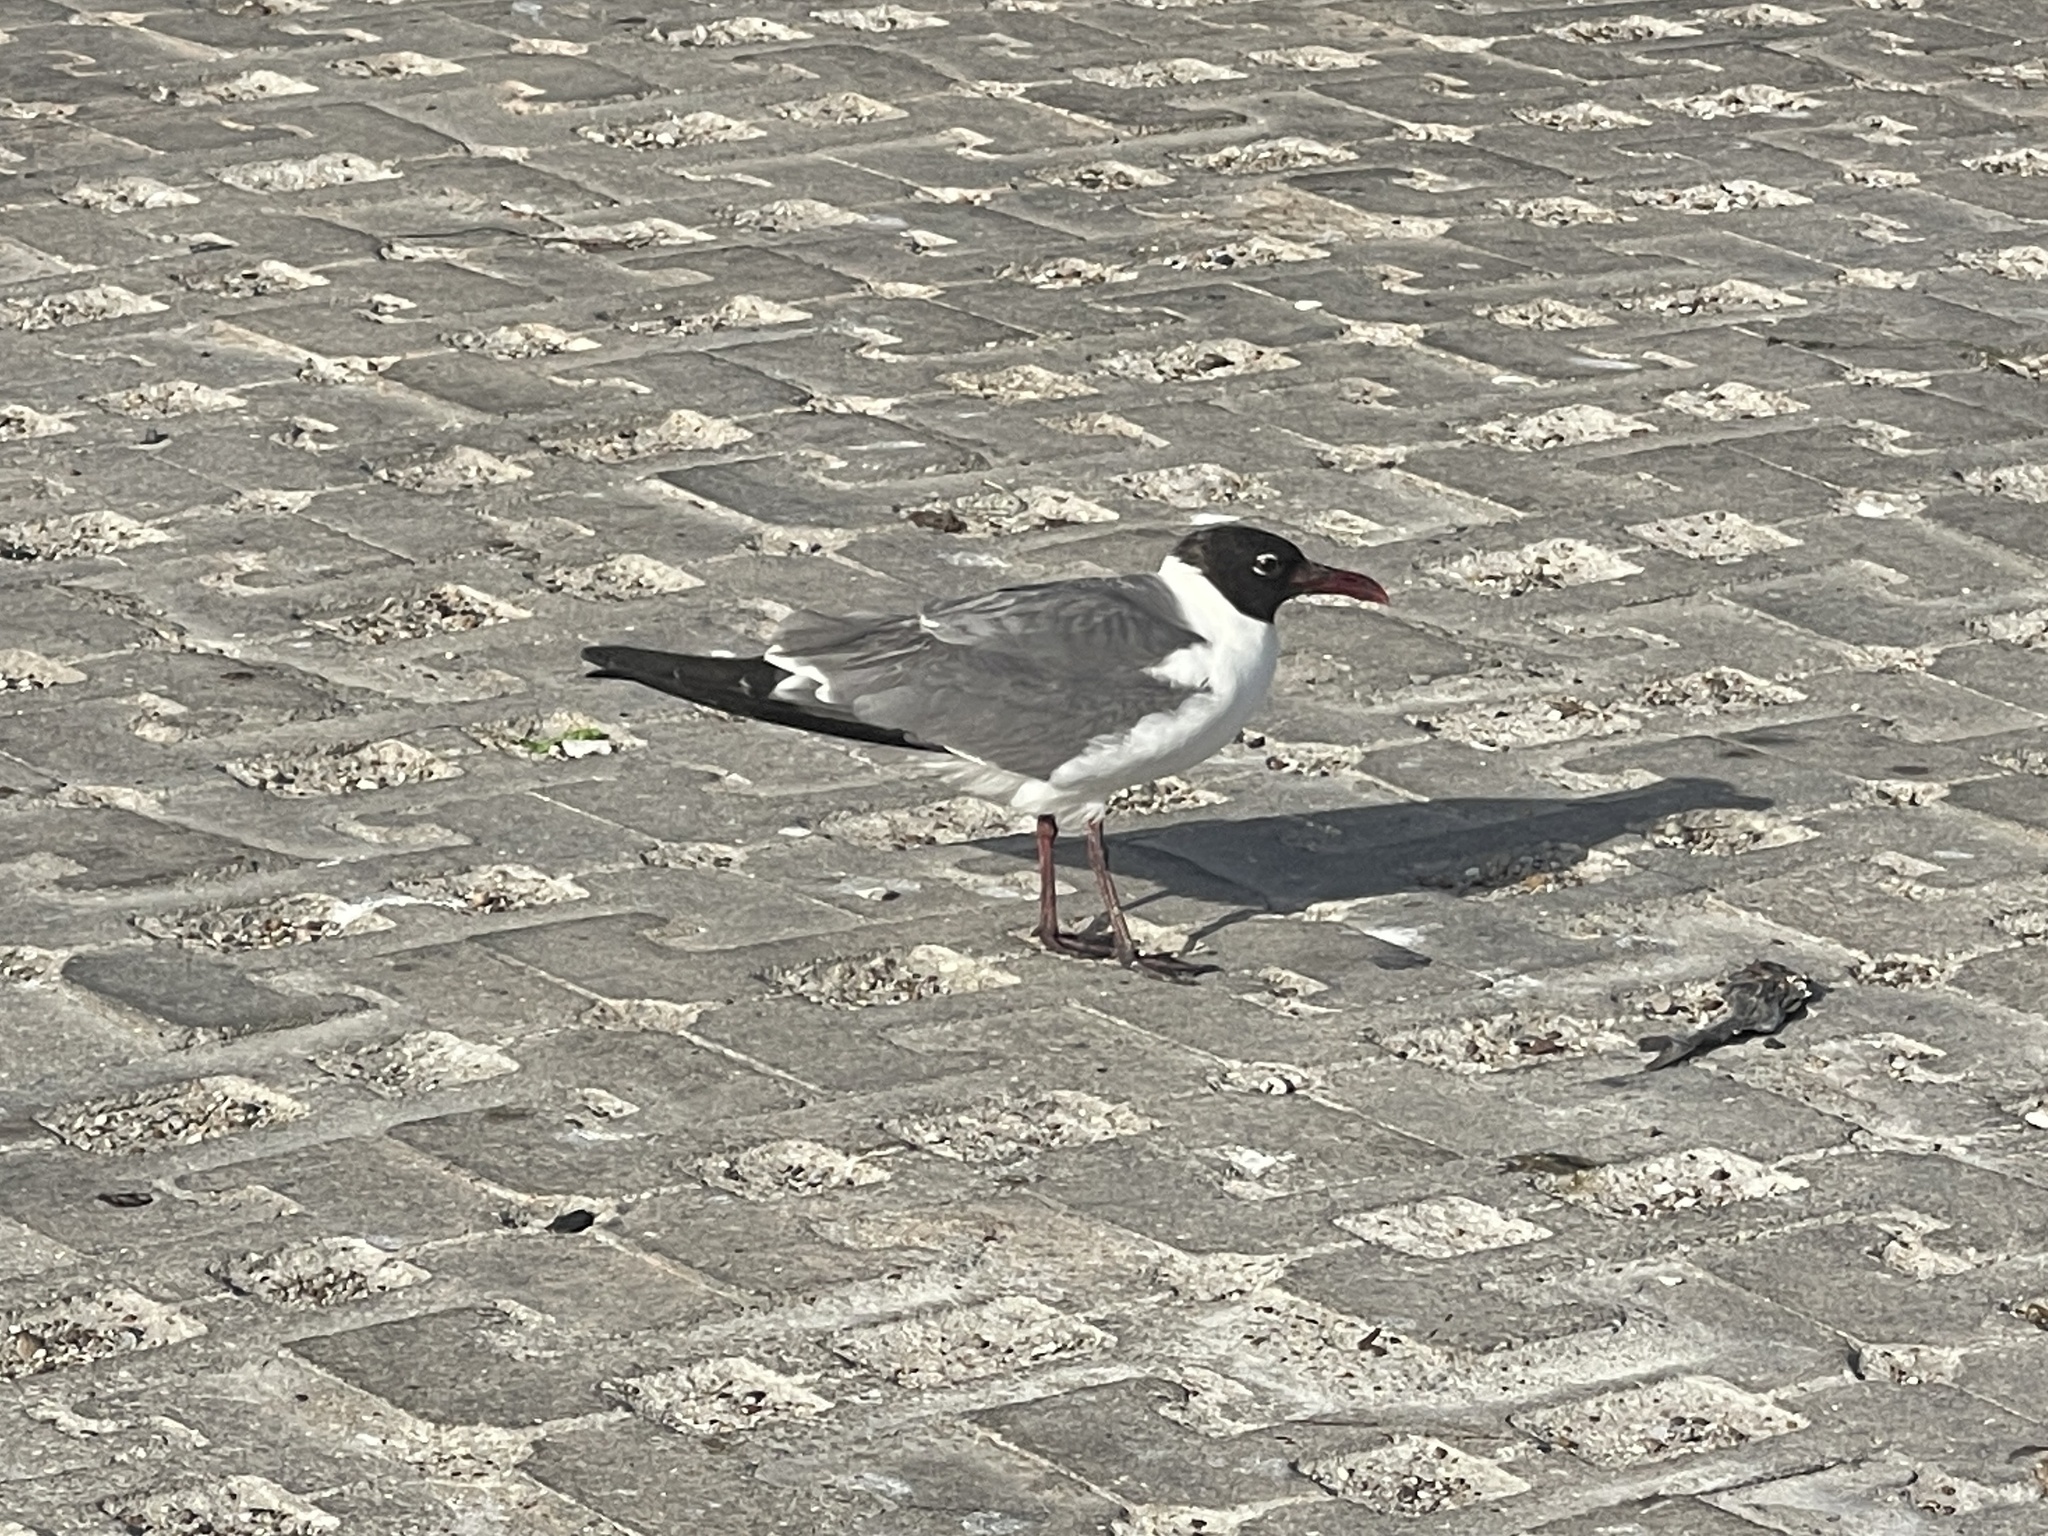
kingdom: Animalia
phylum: Chordata
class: Aves
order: Charadriiformes
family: Laridae
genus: Leucophaeus
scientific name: Leucophaeus atricilla
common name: Laughing gull
